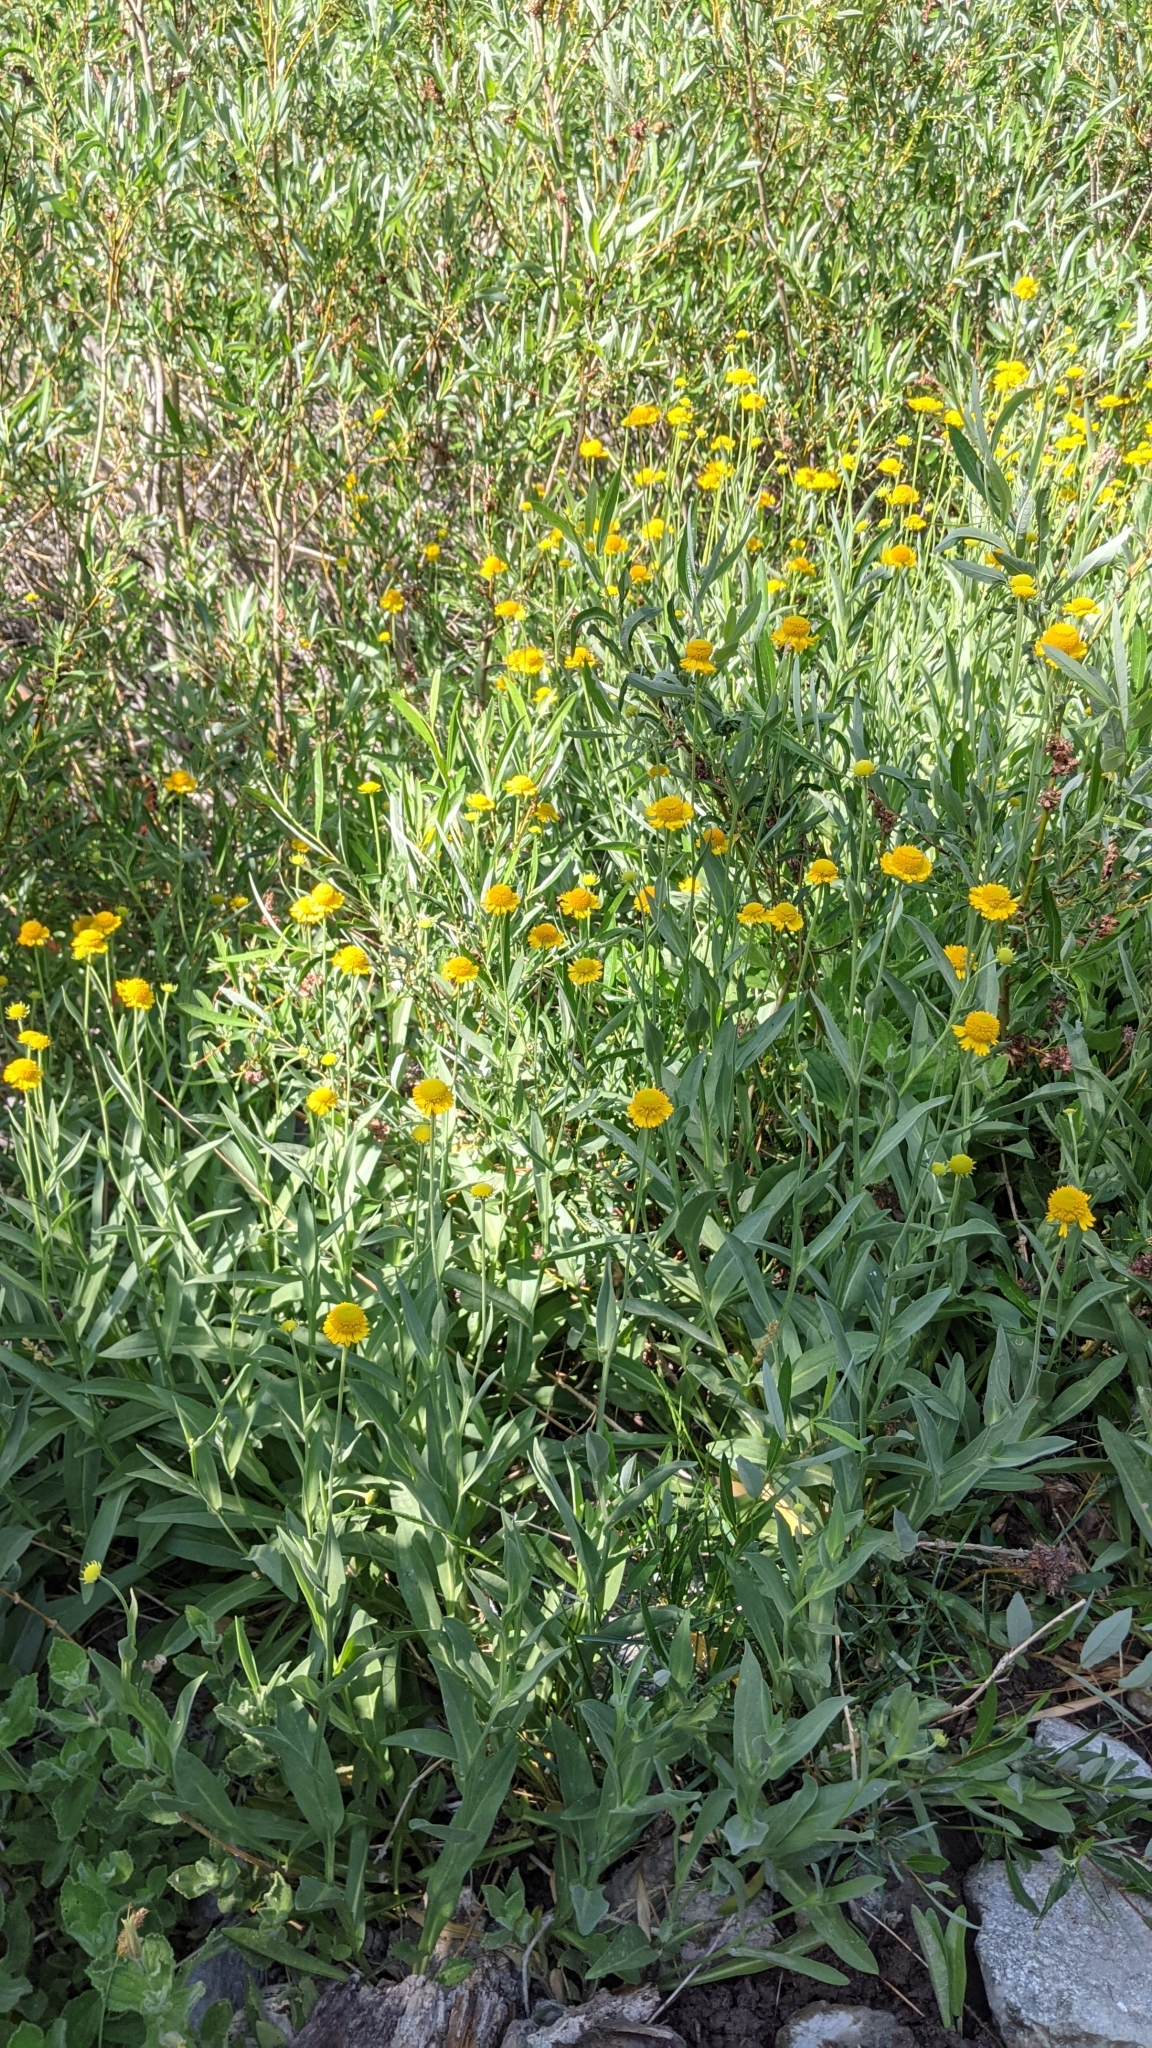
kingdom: Plantae
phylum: Tracheophyta
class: Magnoliopsida
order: Asterales
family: Asteraceae
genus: Helenium
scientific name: Helenium bigelovii
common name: Bigelow's sneezeweed
